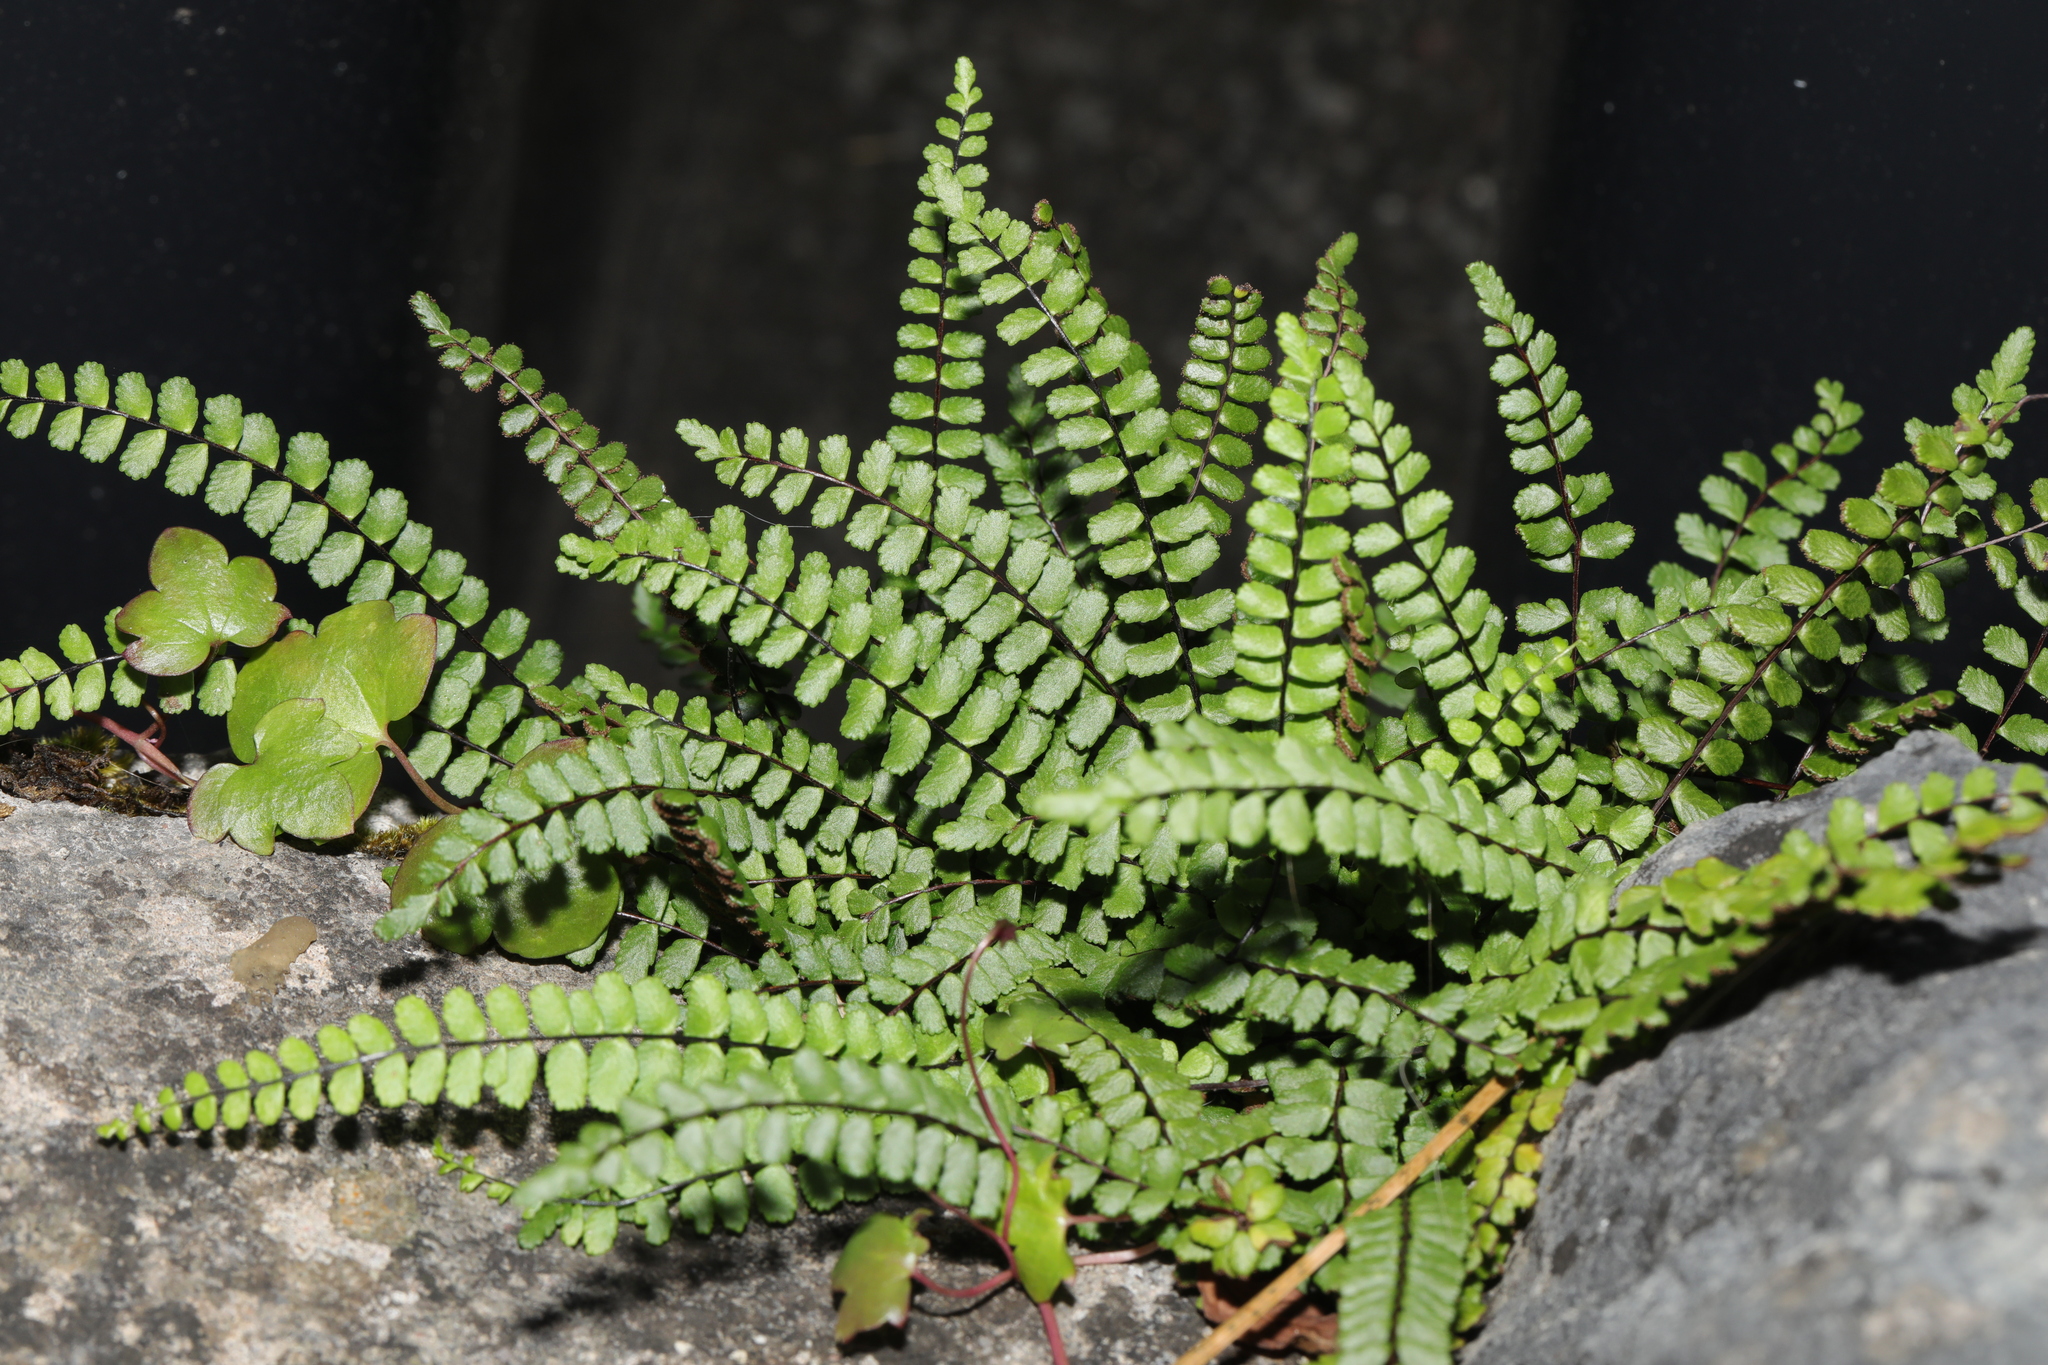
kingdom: Plantae
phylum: Tracheophyta
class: Polypodiopsida
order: Polypodiales
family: Aspleniaceae
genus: Asplenium
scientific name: Asplenium trichomanes
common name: Maidenhair spleenwort
